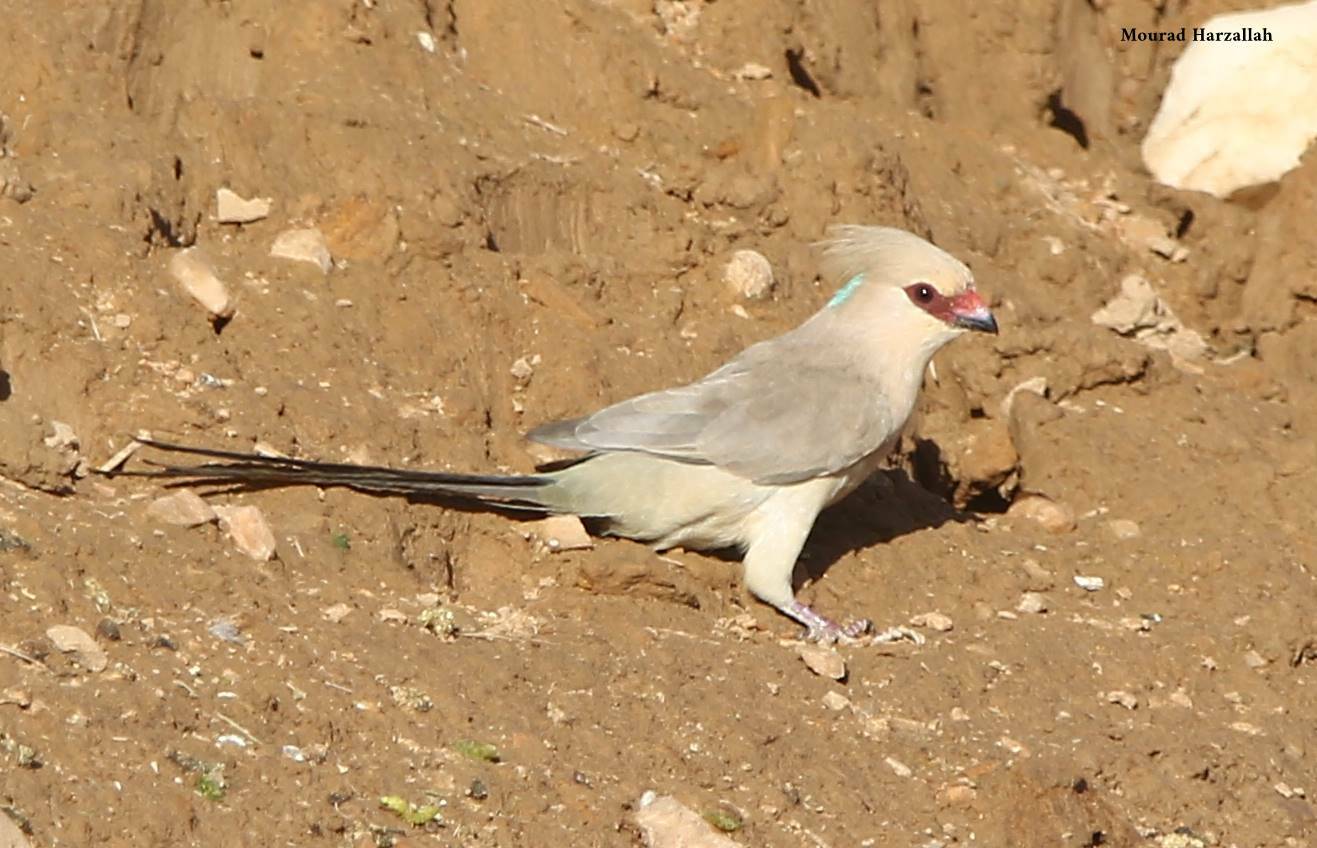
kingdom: Animalia
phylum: Chordata
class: Aves
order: Coliiformes
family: Coliidae
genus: Urocolius
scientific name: Urocolius macrourus
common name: Blue-naped mousebird
